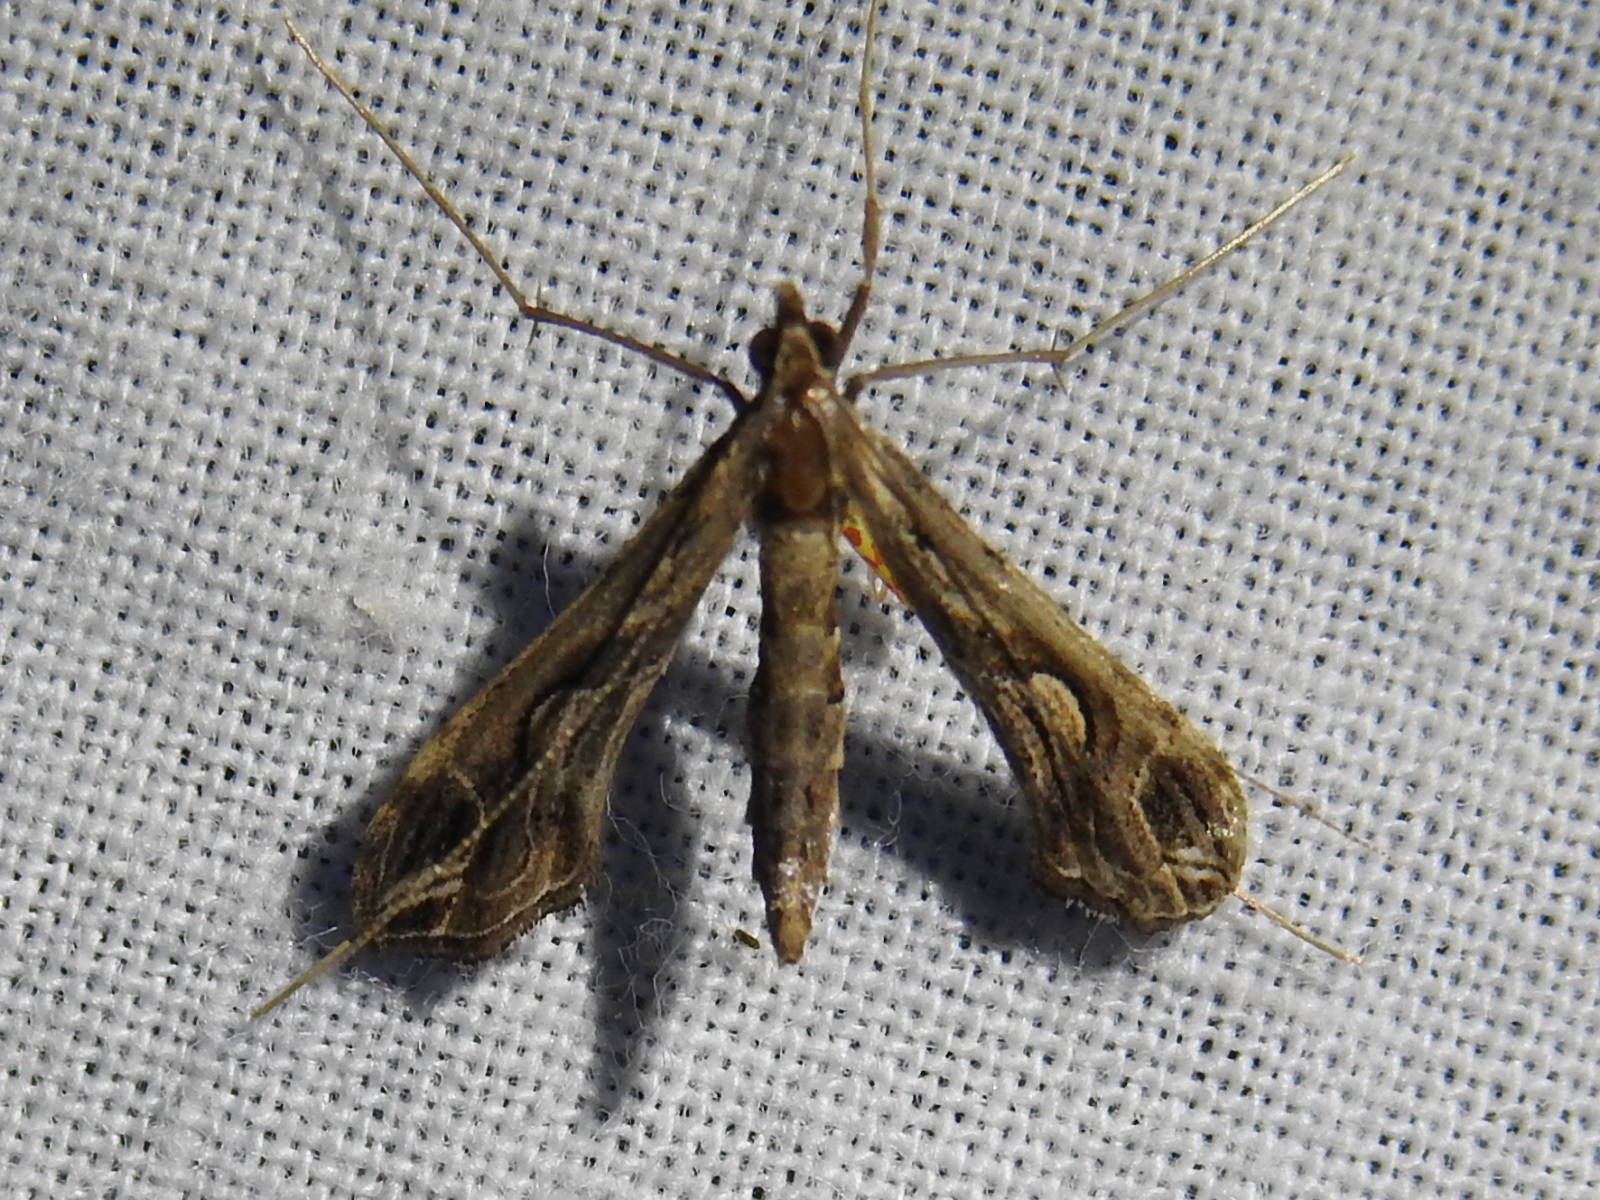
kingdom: Animalia
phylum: Arthropoda
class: Insecta
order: Lepidoptera
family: Crambidae
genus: Lineodes
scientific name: Lineodes integra
